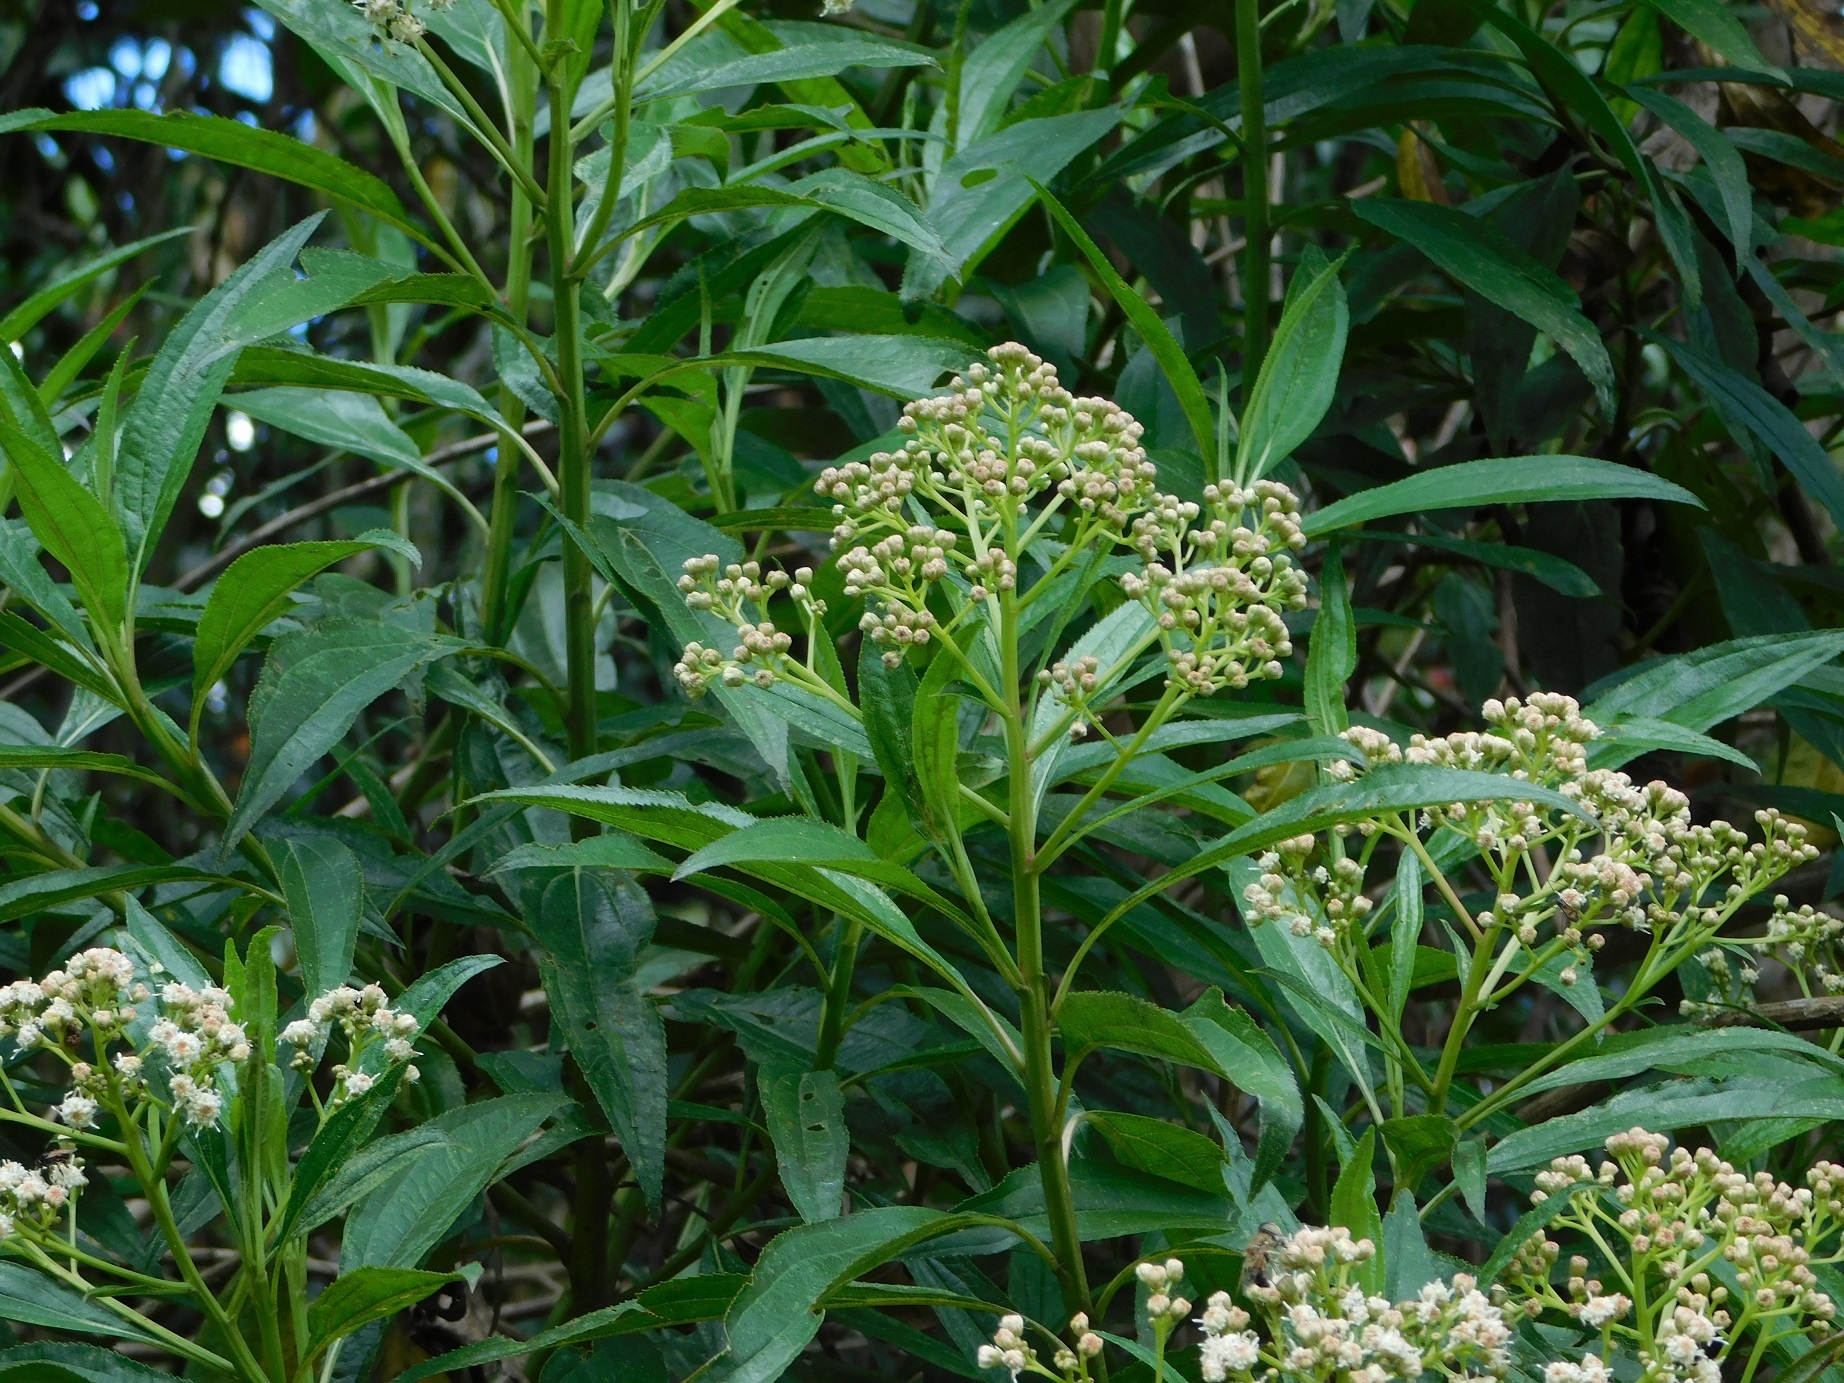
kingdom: Plantae
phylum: Tracheophyta
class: Magnoliopsida
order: Asterales
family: Asteraceae
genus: Baccharis
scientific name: Baccharis latifolia
